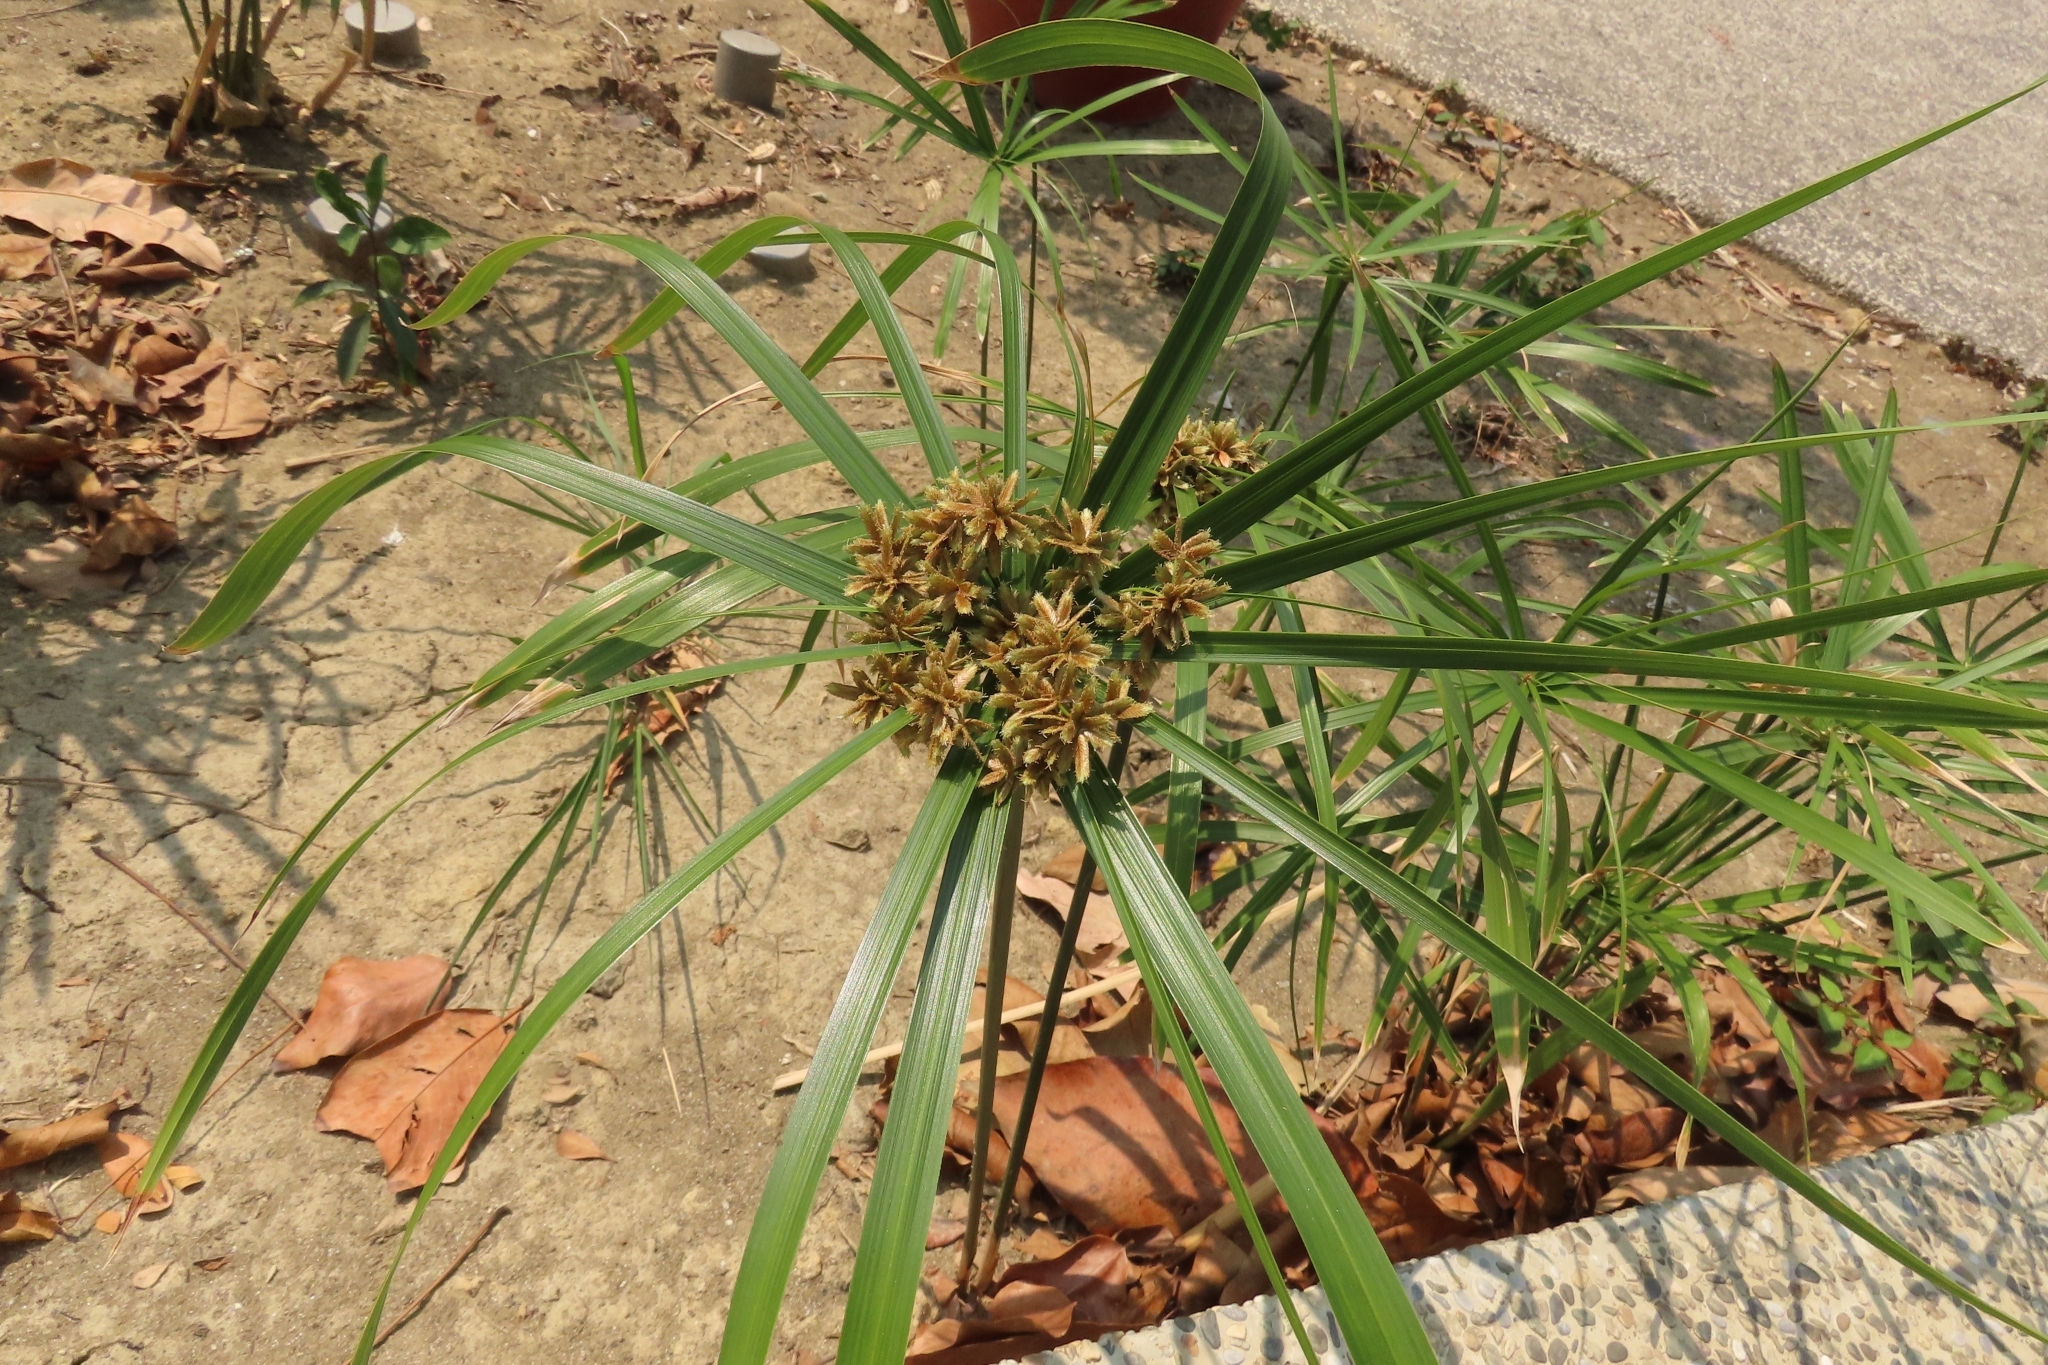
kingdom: Plantae
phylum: Tracheophyta
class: Liliopsida
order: Poales
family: Cyperaceae
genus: Cyperus
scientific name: Cyperus alternifolius
